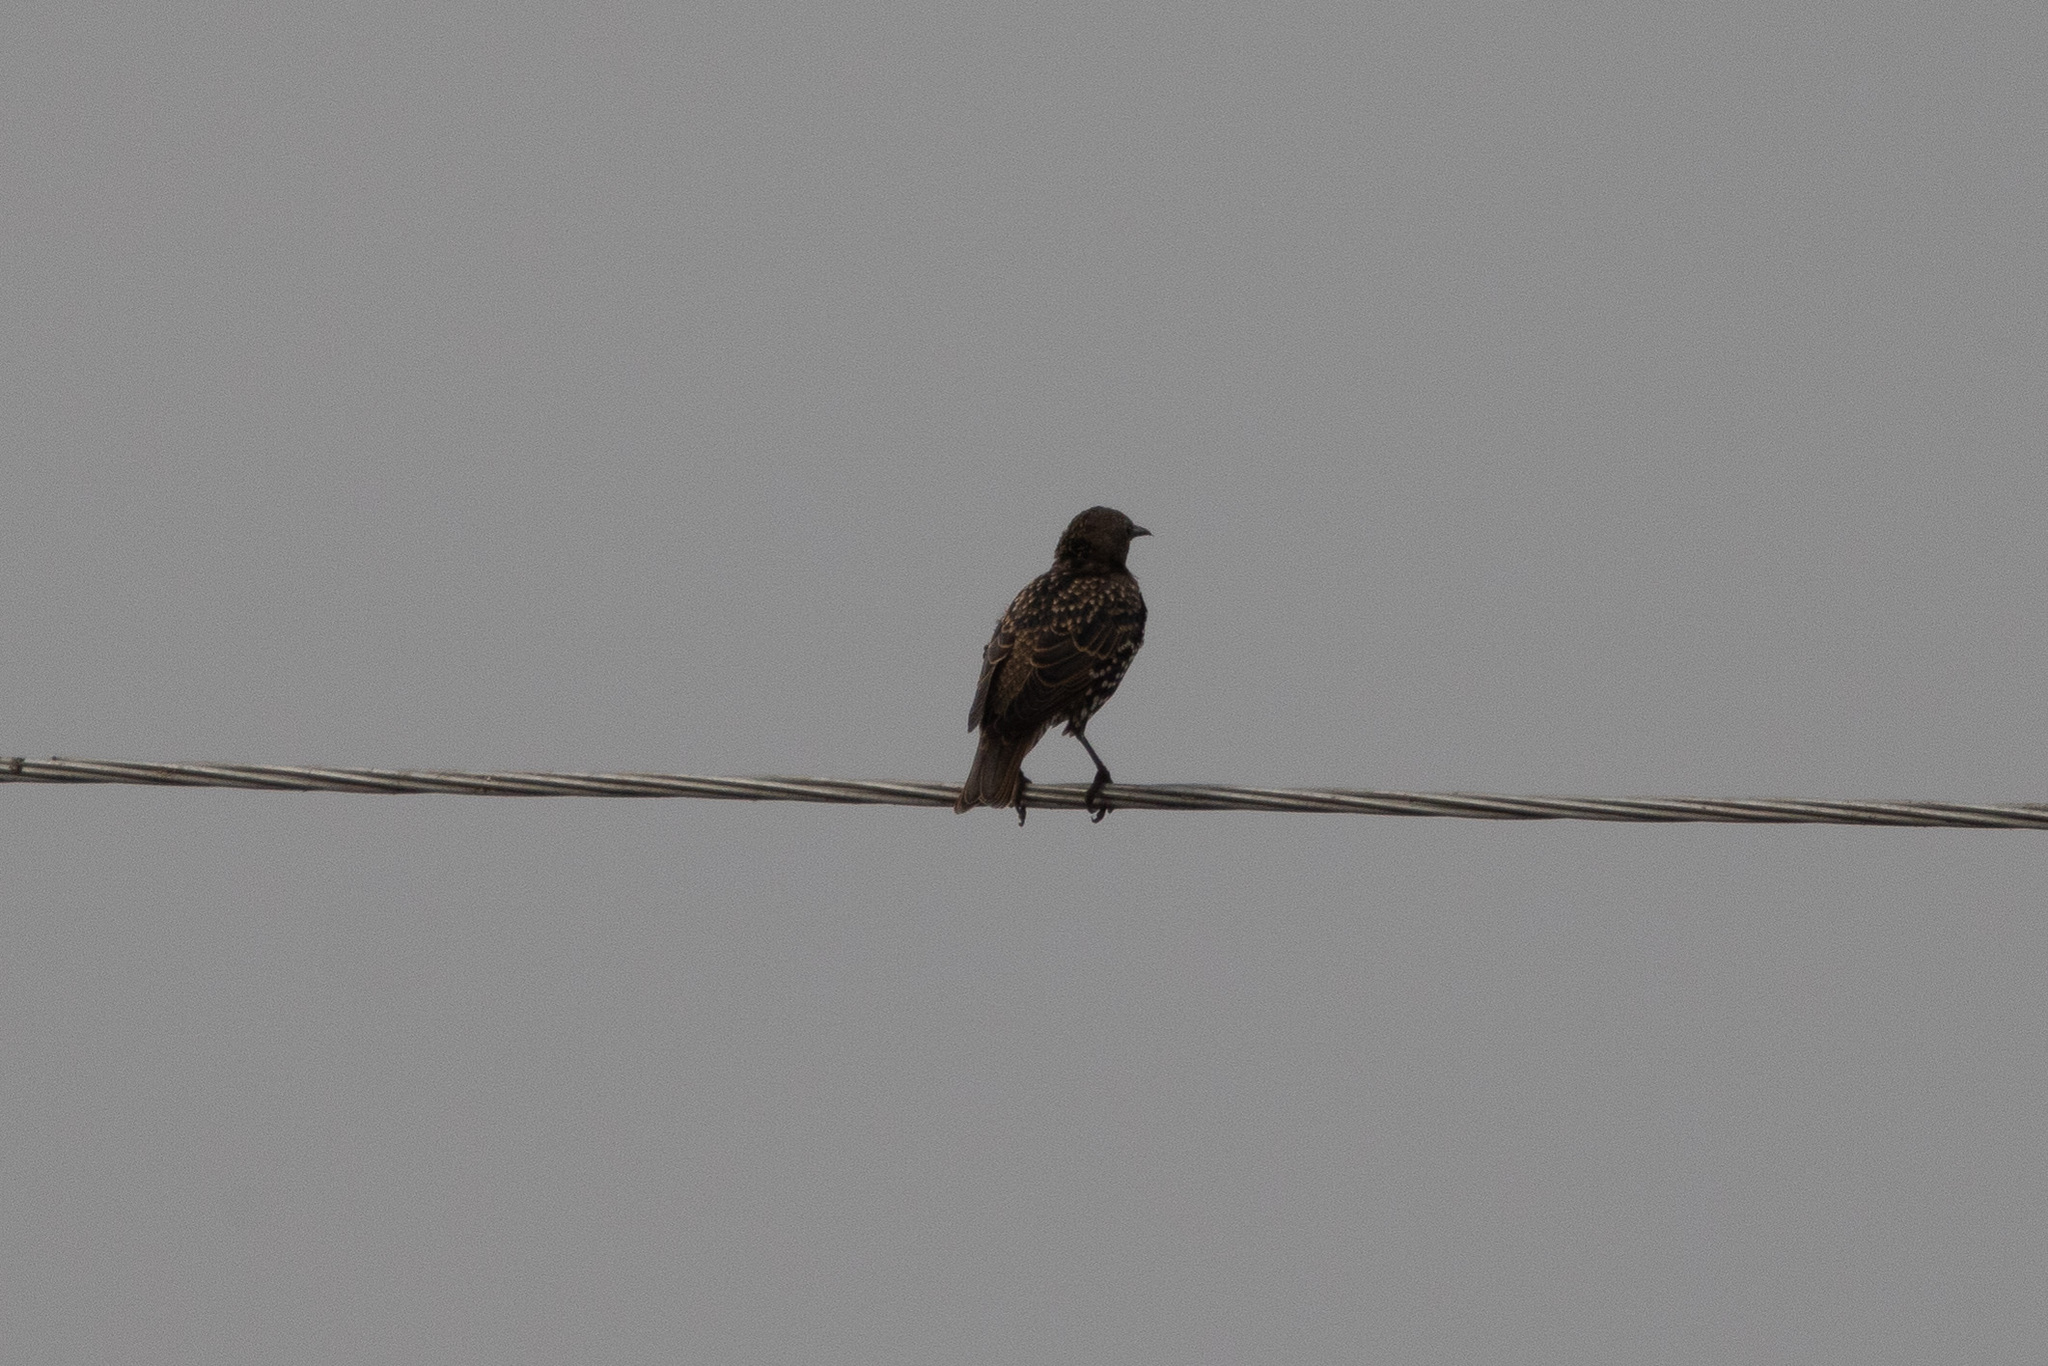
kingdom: Animalia
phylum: Chordata
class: Aves
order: Passeriformes
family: Sturnidae
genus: Sturnus
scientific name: Sturnus vulgaris
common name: Common starling
